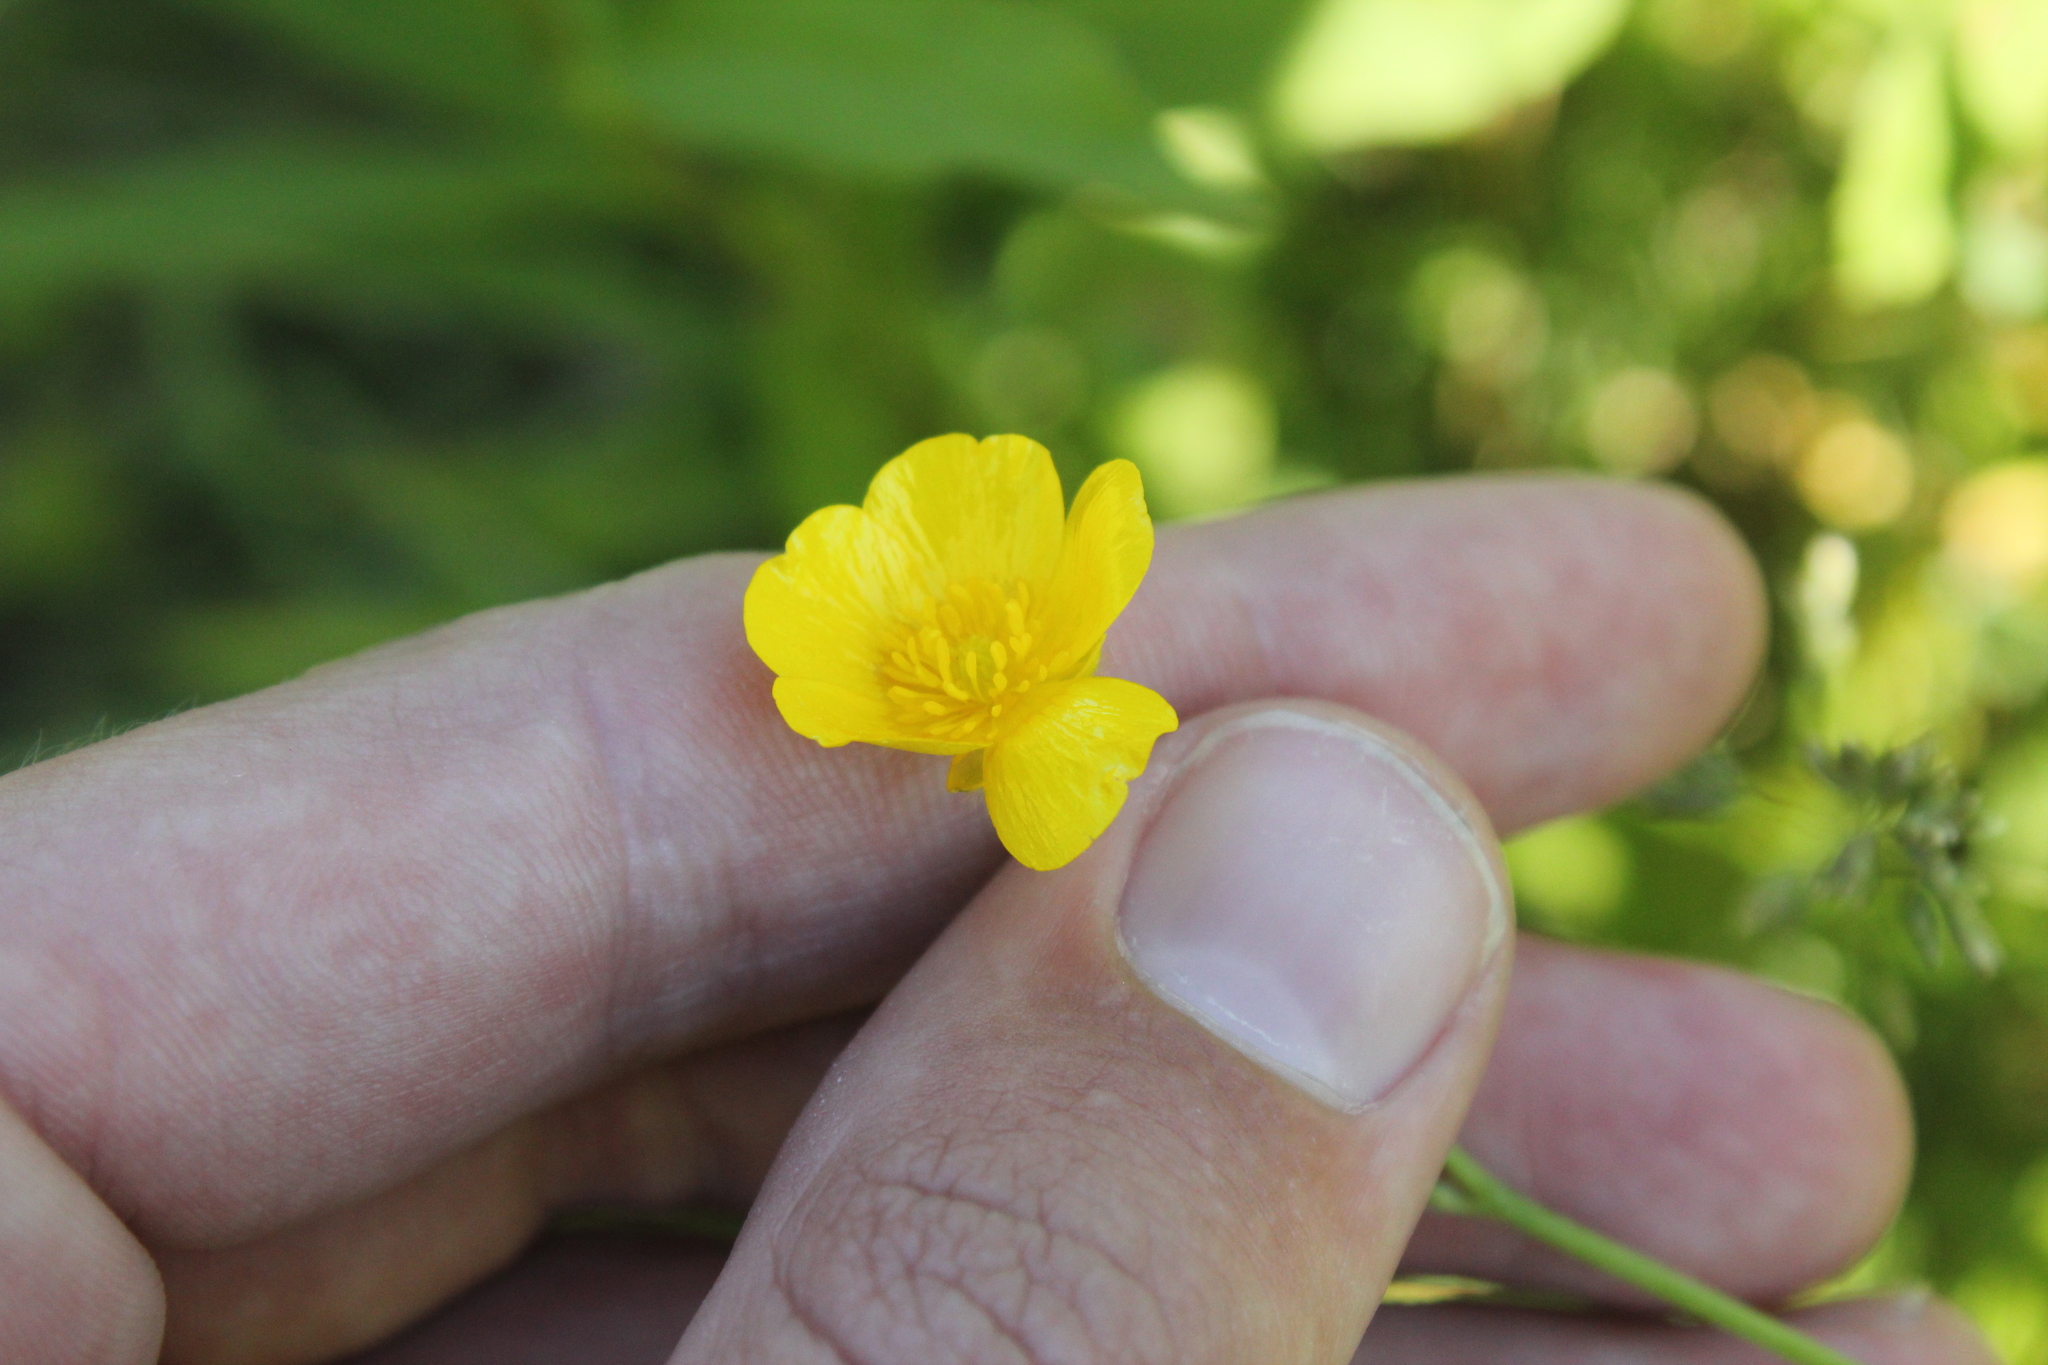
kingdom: Plantae
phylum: Tracheophyta
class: Magnoliopsida
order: Ranunculales
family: Ranunculaceae
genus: Ranunculus
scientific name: Ranunculus acris
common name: Meadow buttercup
